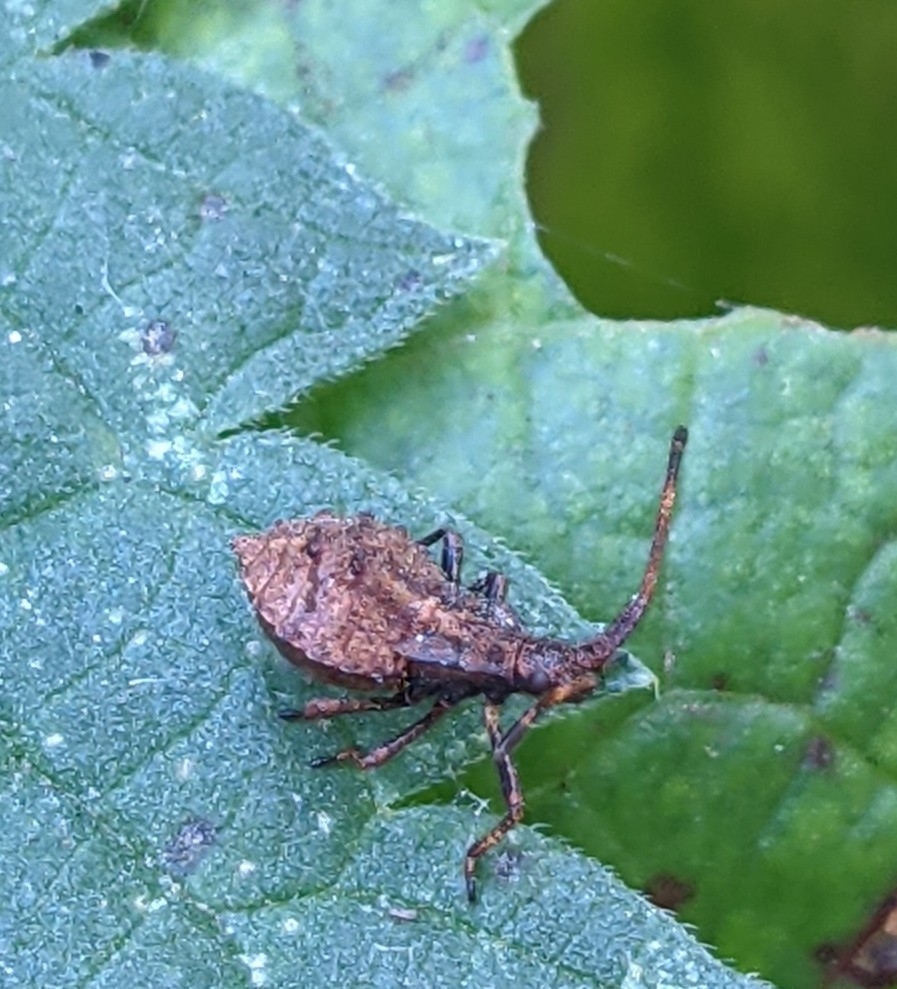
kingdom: Animalia
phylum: Arthropoda
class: Insecta
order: Hemiptera
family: Coreidae
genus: Coreus
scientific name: Coreus marginatus
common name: Dock bug
